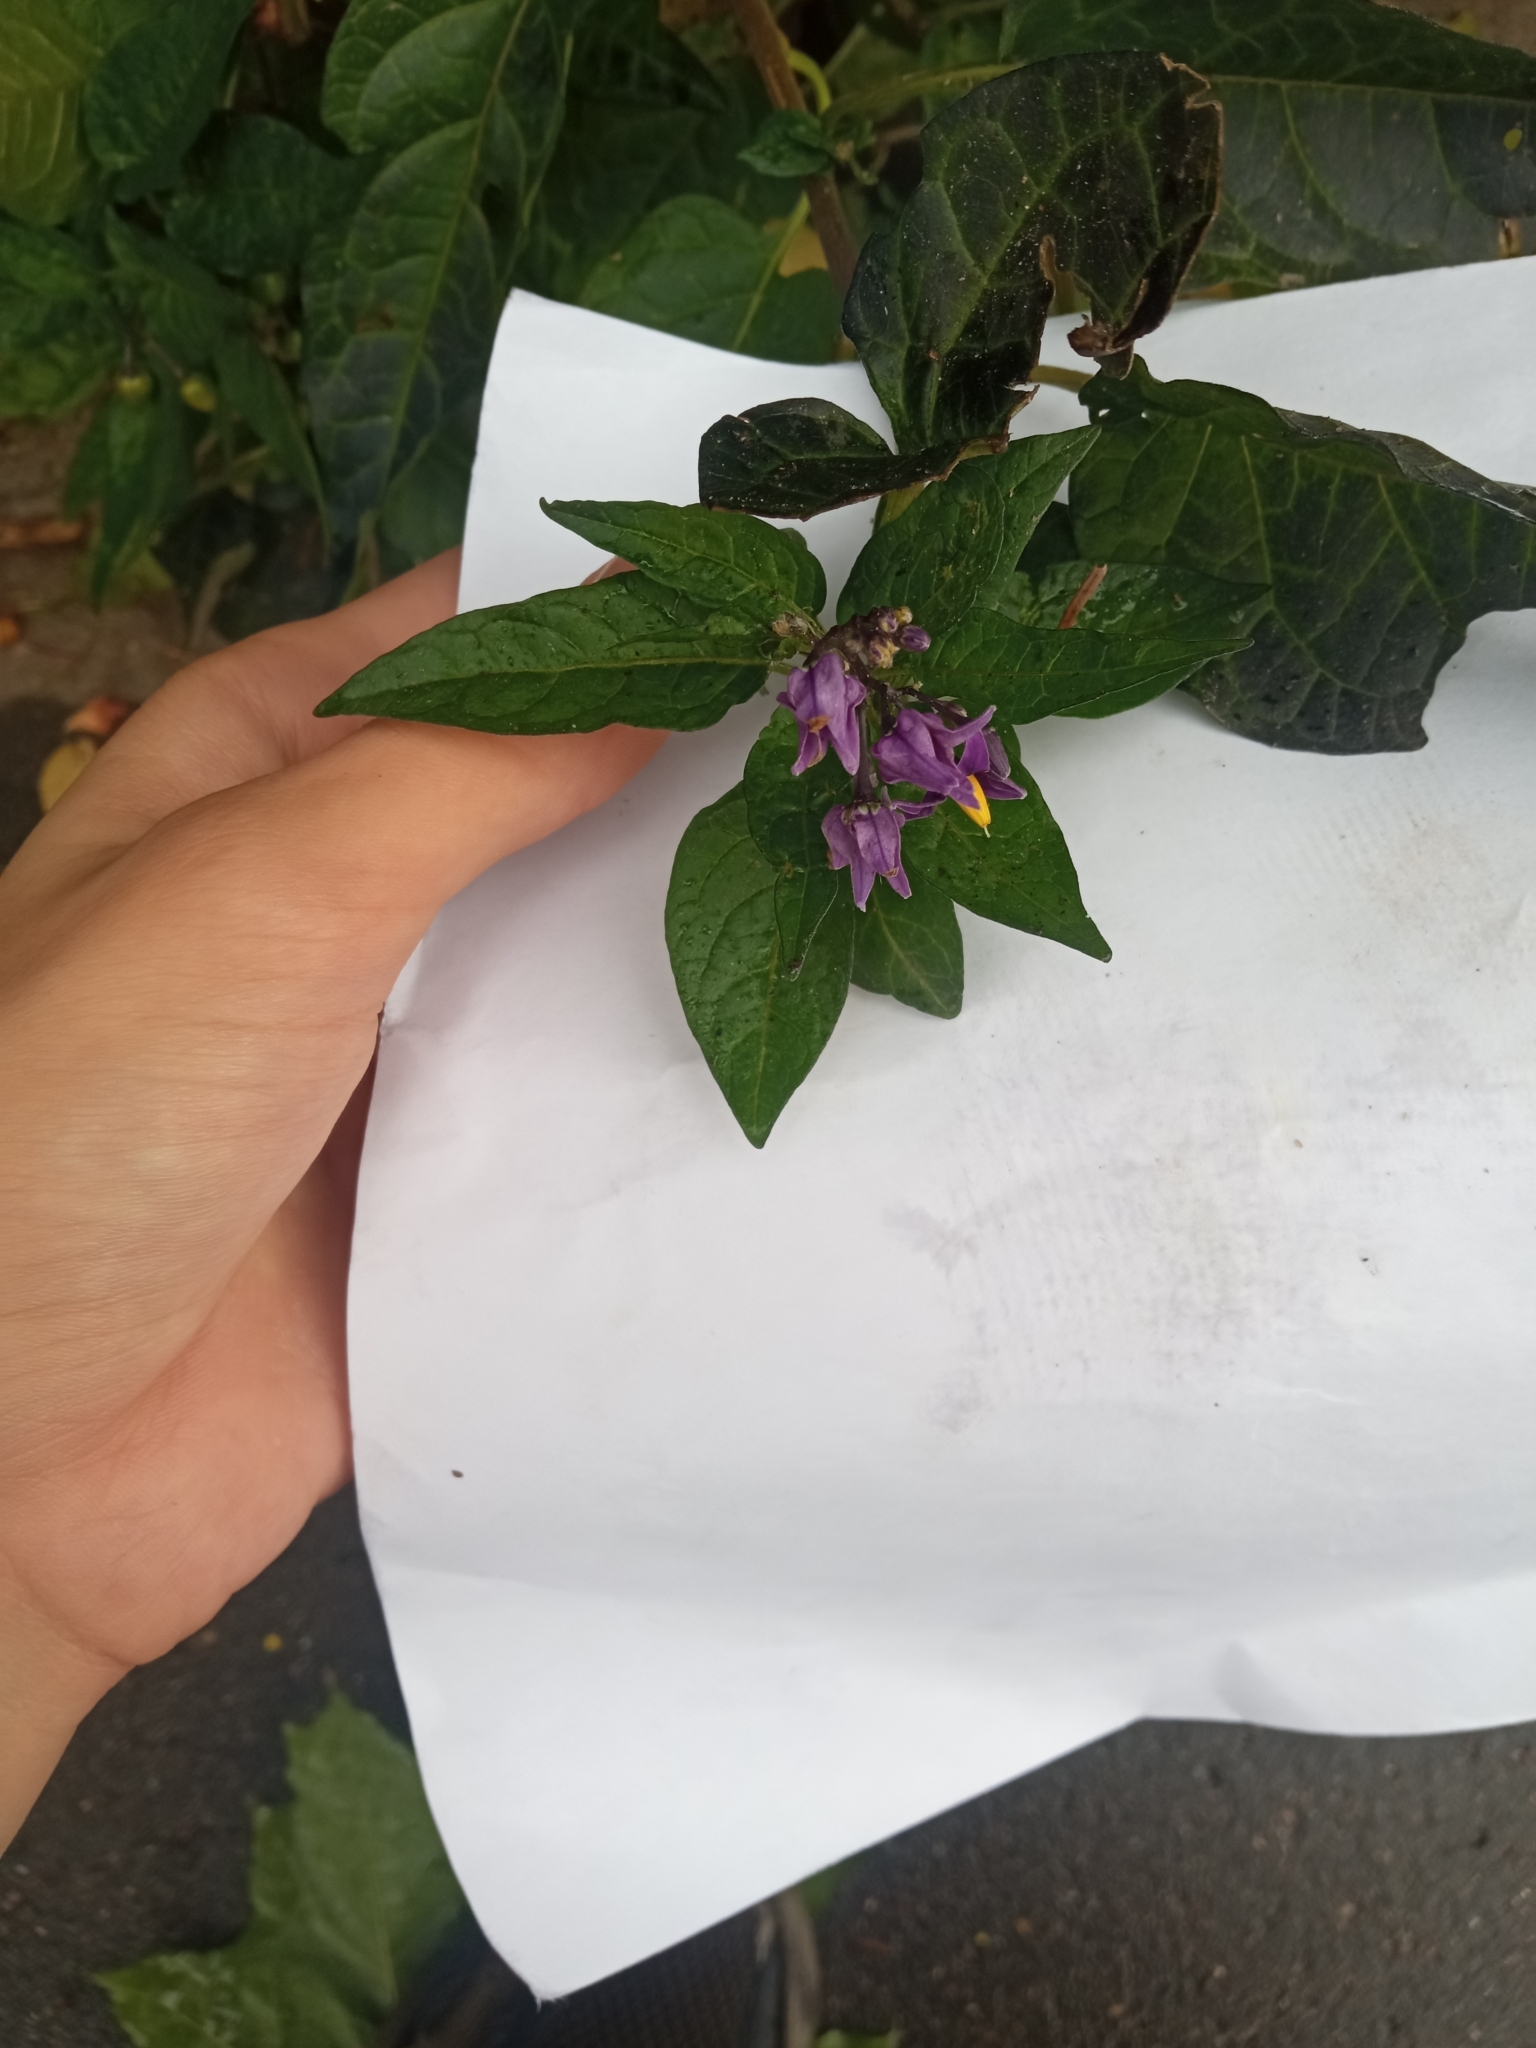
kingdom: Plantae
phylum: Tracheophyta
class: Magnoliopsida
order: Solanales
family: Solanaceae
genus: Solanum
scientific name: Solanum dulcamara
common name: Climbing nightshade
